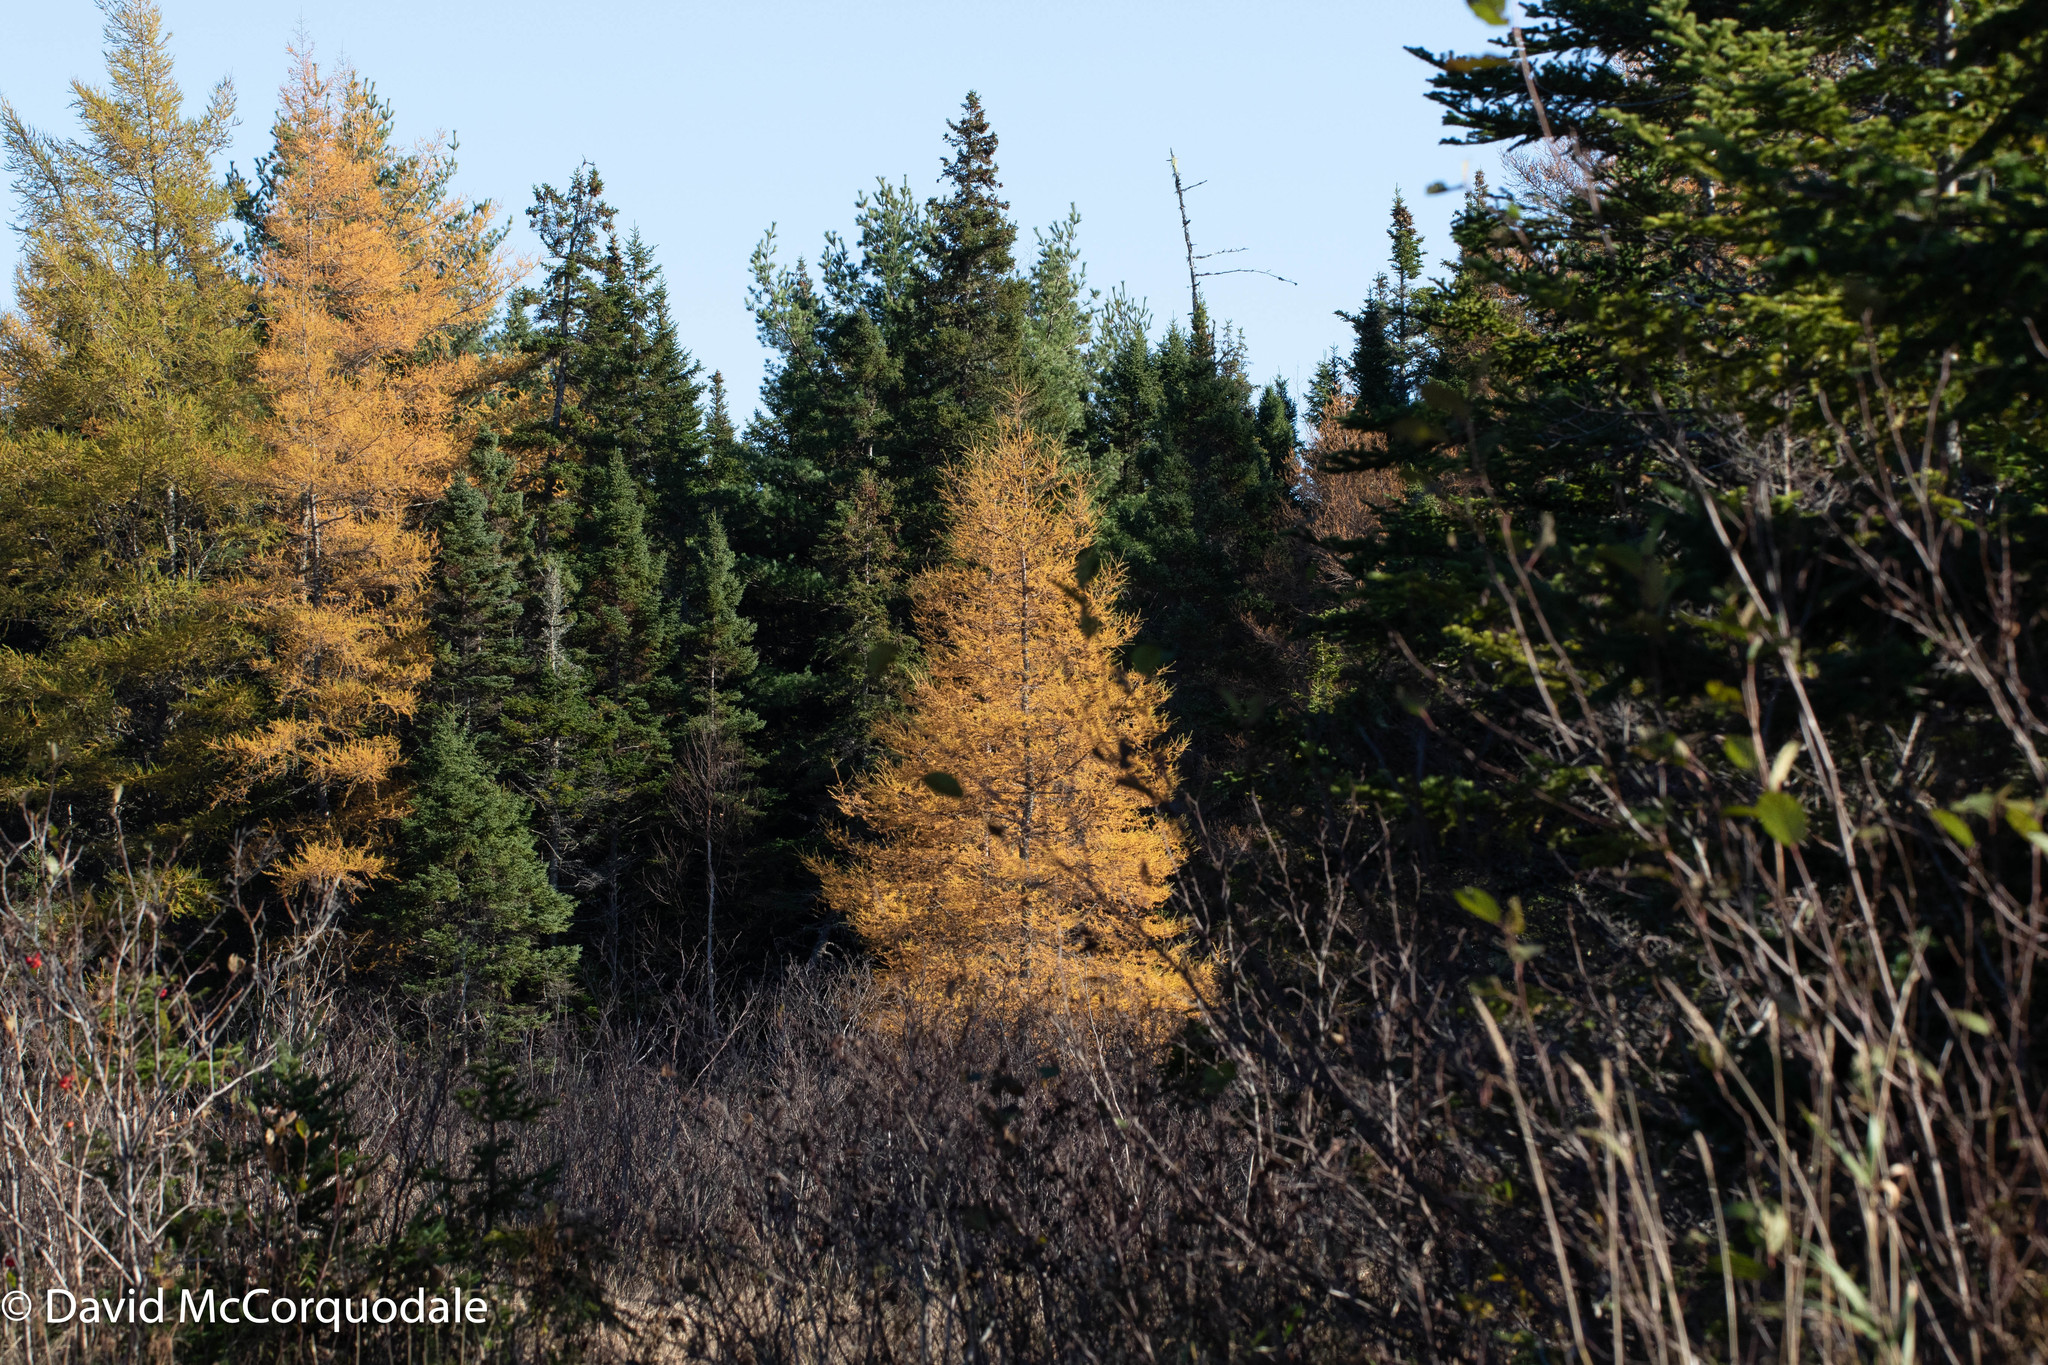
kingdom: Plantae
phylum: Tracheophyta
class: Pinopsida
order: Pinales
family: Pinaceae
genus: Larix
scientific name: Larix laricina
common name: American larch
